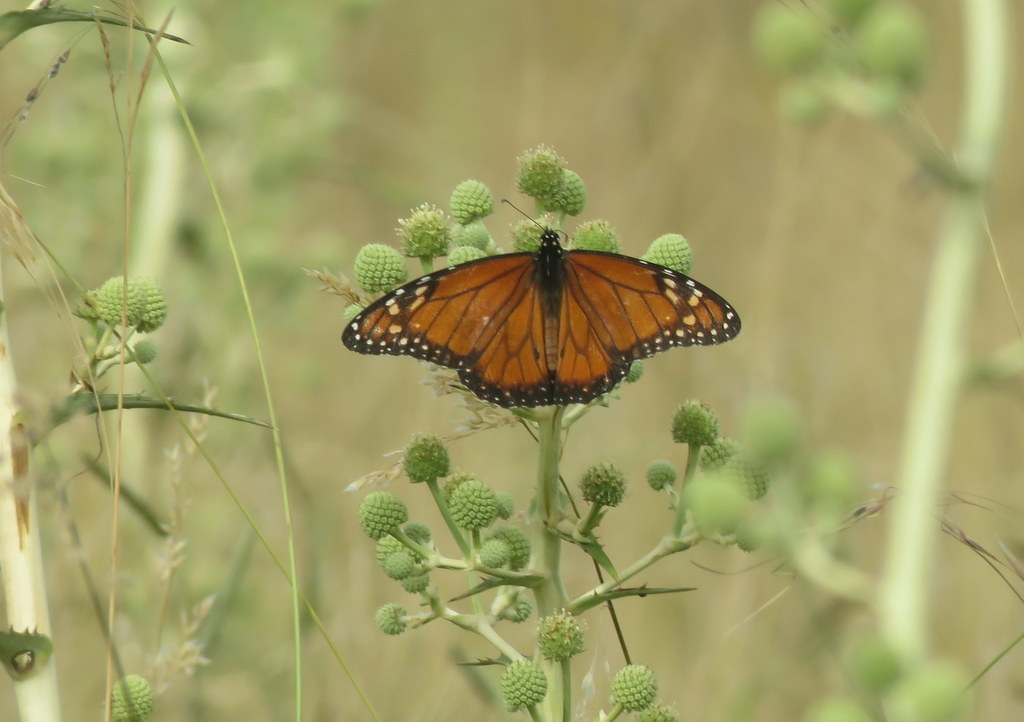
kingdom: Animalia
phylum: Arthropoda
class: Insecta
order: Lepidoptera
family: Nymphalidae
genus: Danaus
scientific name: Danaus erippus
